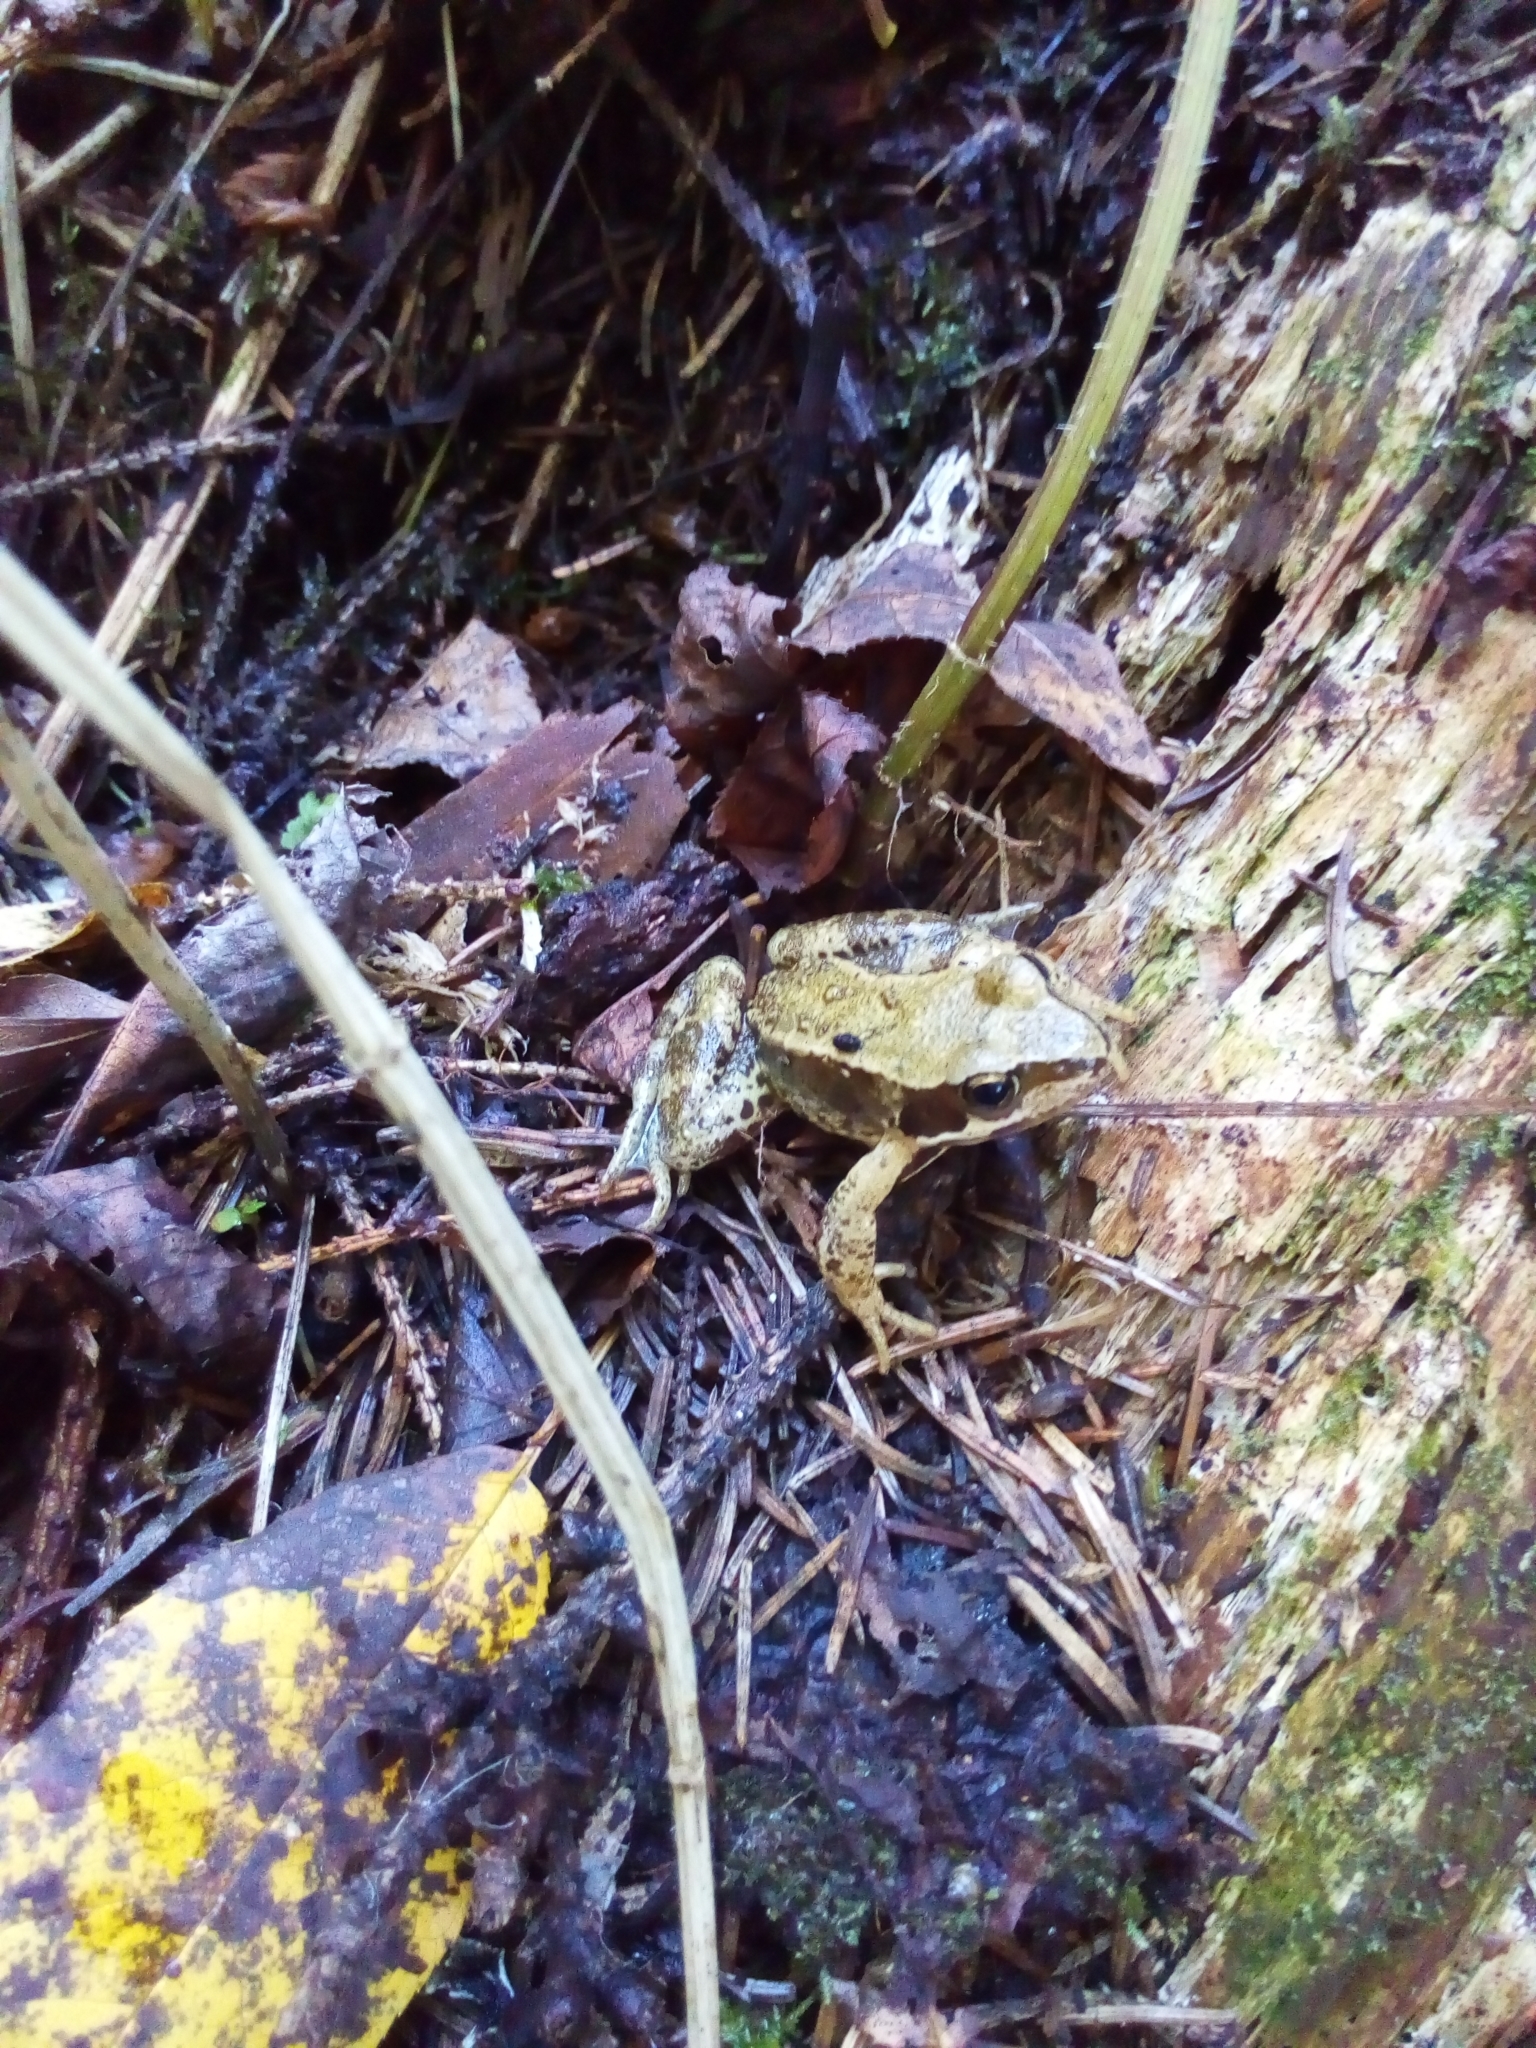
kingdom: Animalia
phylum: Chordata
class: Amphibia
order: Anura
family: Ranidae
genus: Rana
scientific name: Rana temporaria
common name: Common frog
